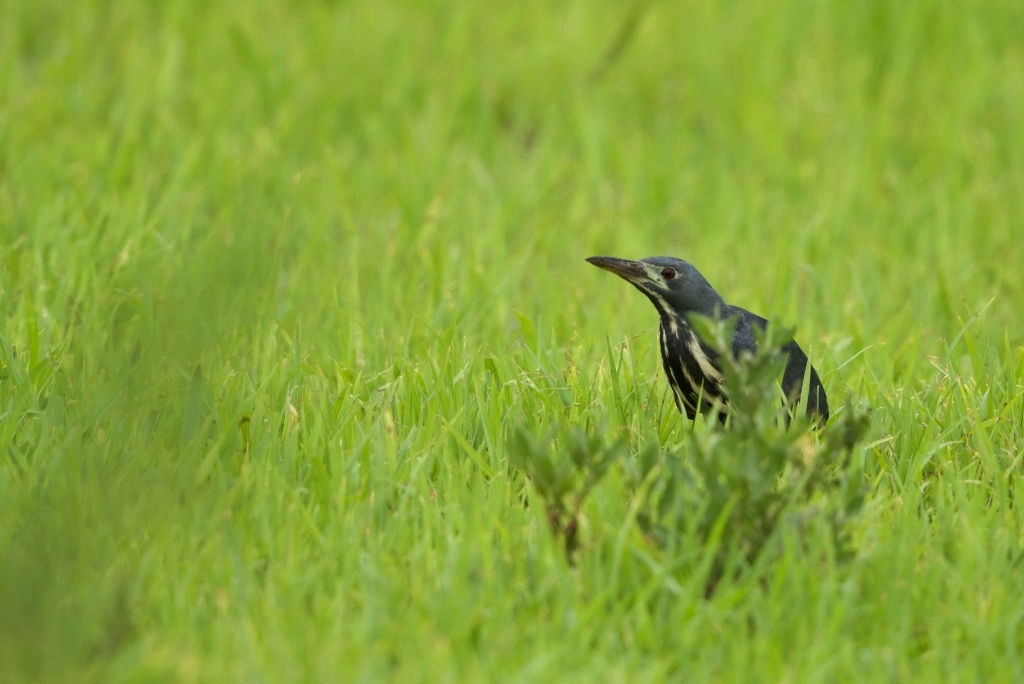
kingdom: Animalia
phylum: Chordata
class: Aves
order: Pelecaniformes
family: Ardeidae
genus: Ixobrychus
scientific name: Ixobrychus sturmii
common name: Dwarf bittern
